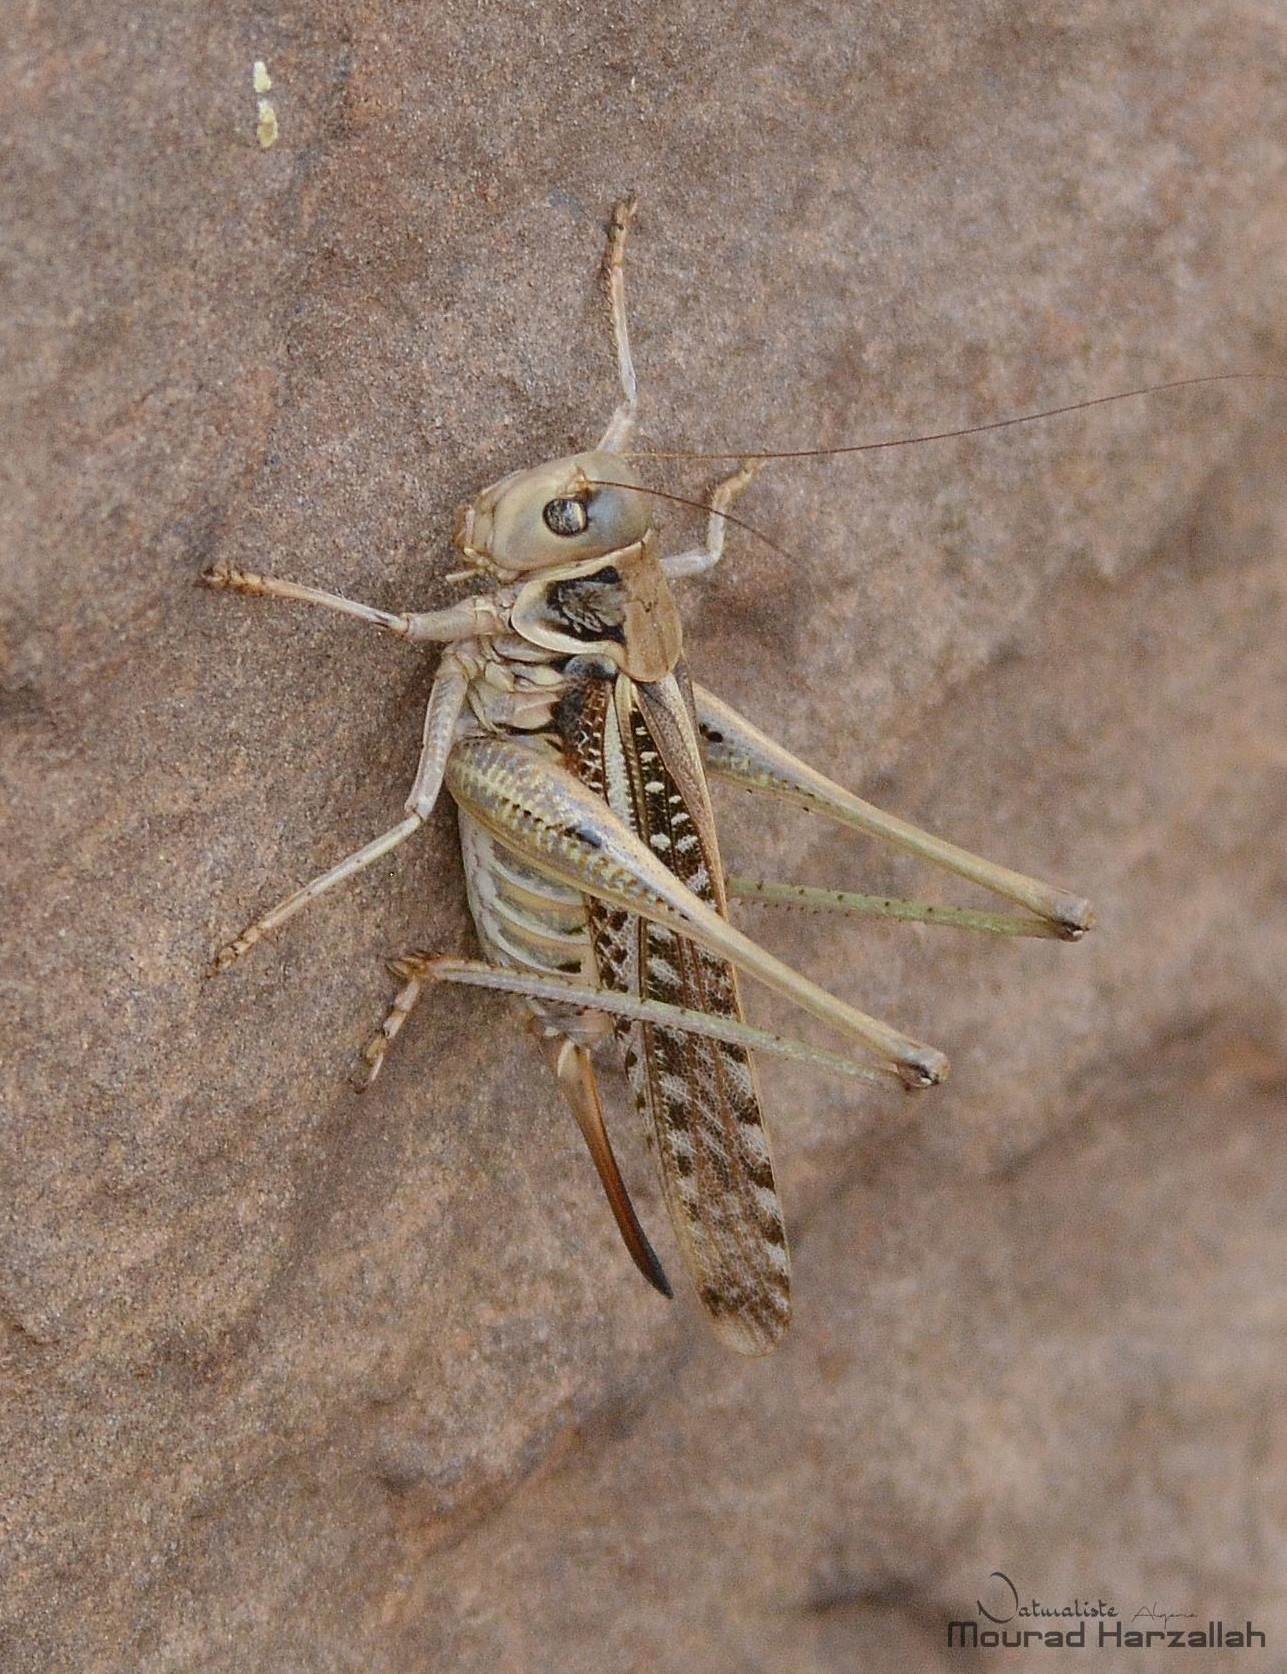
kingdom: Animalia
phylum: Arthropoda
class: Insecta
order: Orthoptera
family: Tettigoniidae
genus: Decticus
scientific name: Decticus albifrons
